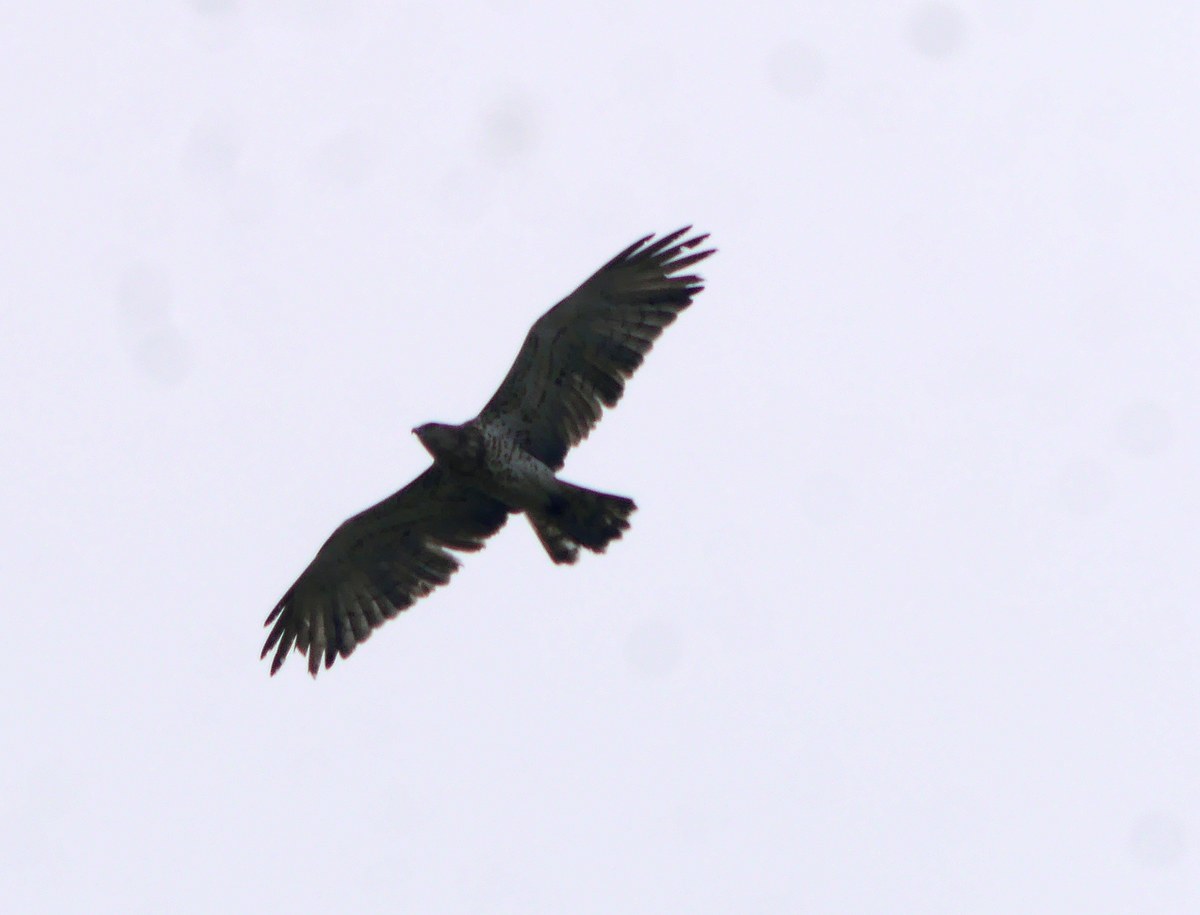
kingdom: Animalia
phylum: Chordata
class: Aves
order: Accipitriformes
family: Accipitridae
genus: Circaetus
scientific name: Circaetus gallicus
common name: Short-toed snake eagle
